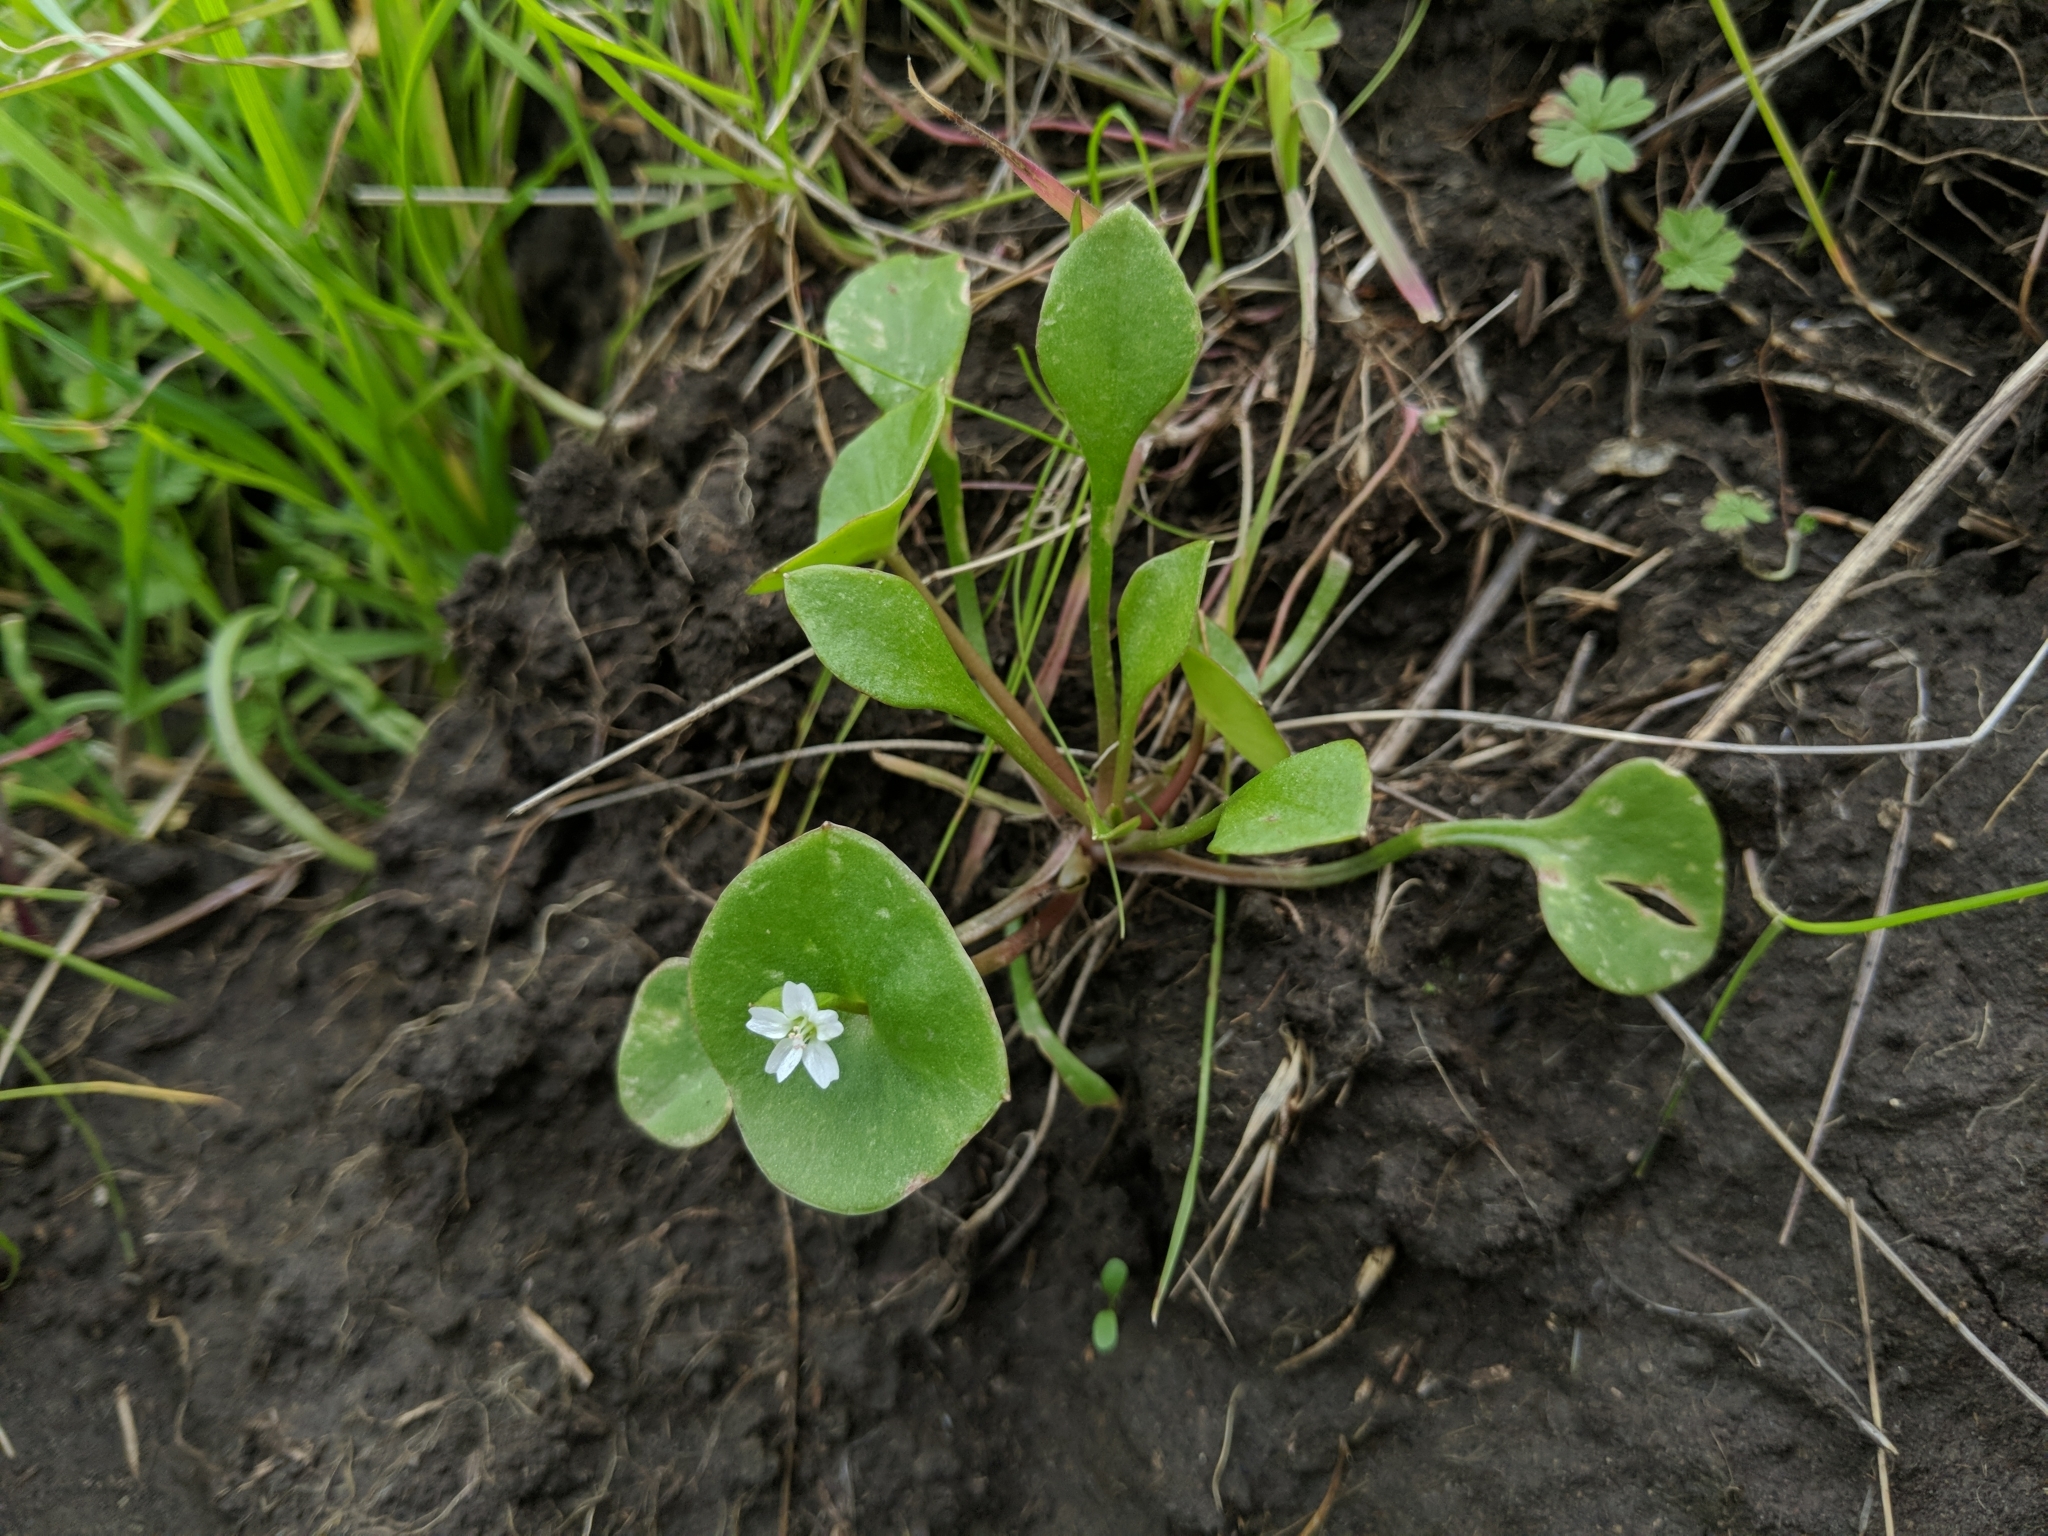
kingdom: Plantae
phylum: Tracheophyta
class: Magnoliopsida
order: Caryophyllales
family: Montiaceae
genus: Claytonia
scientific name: Claytonia perfoliata
